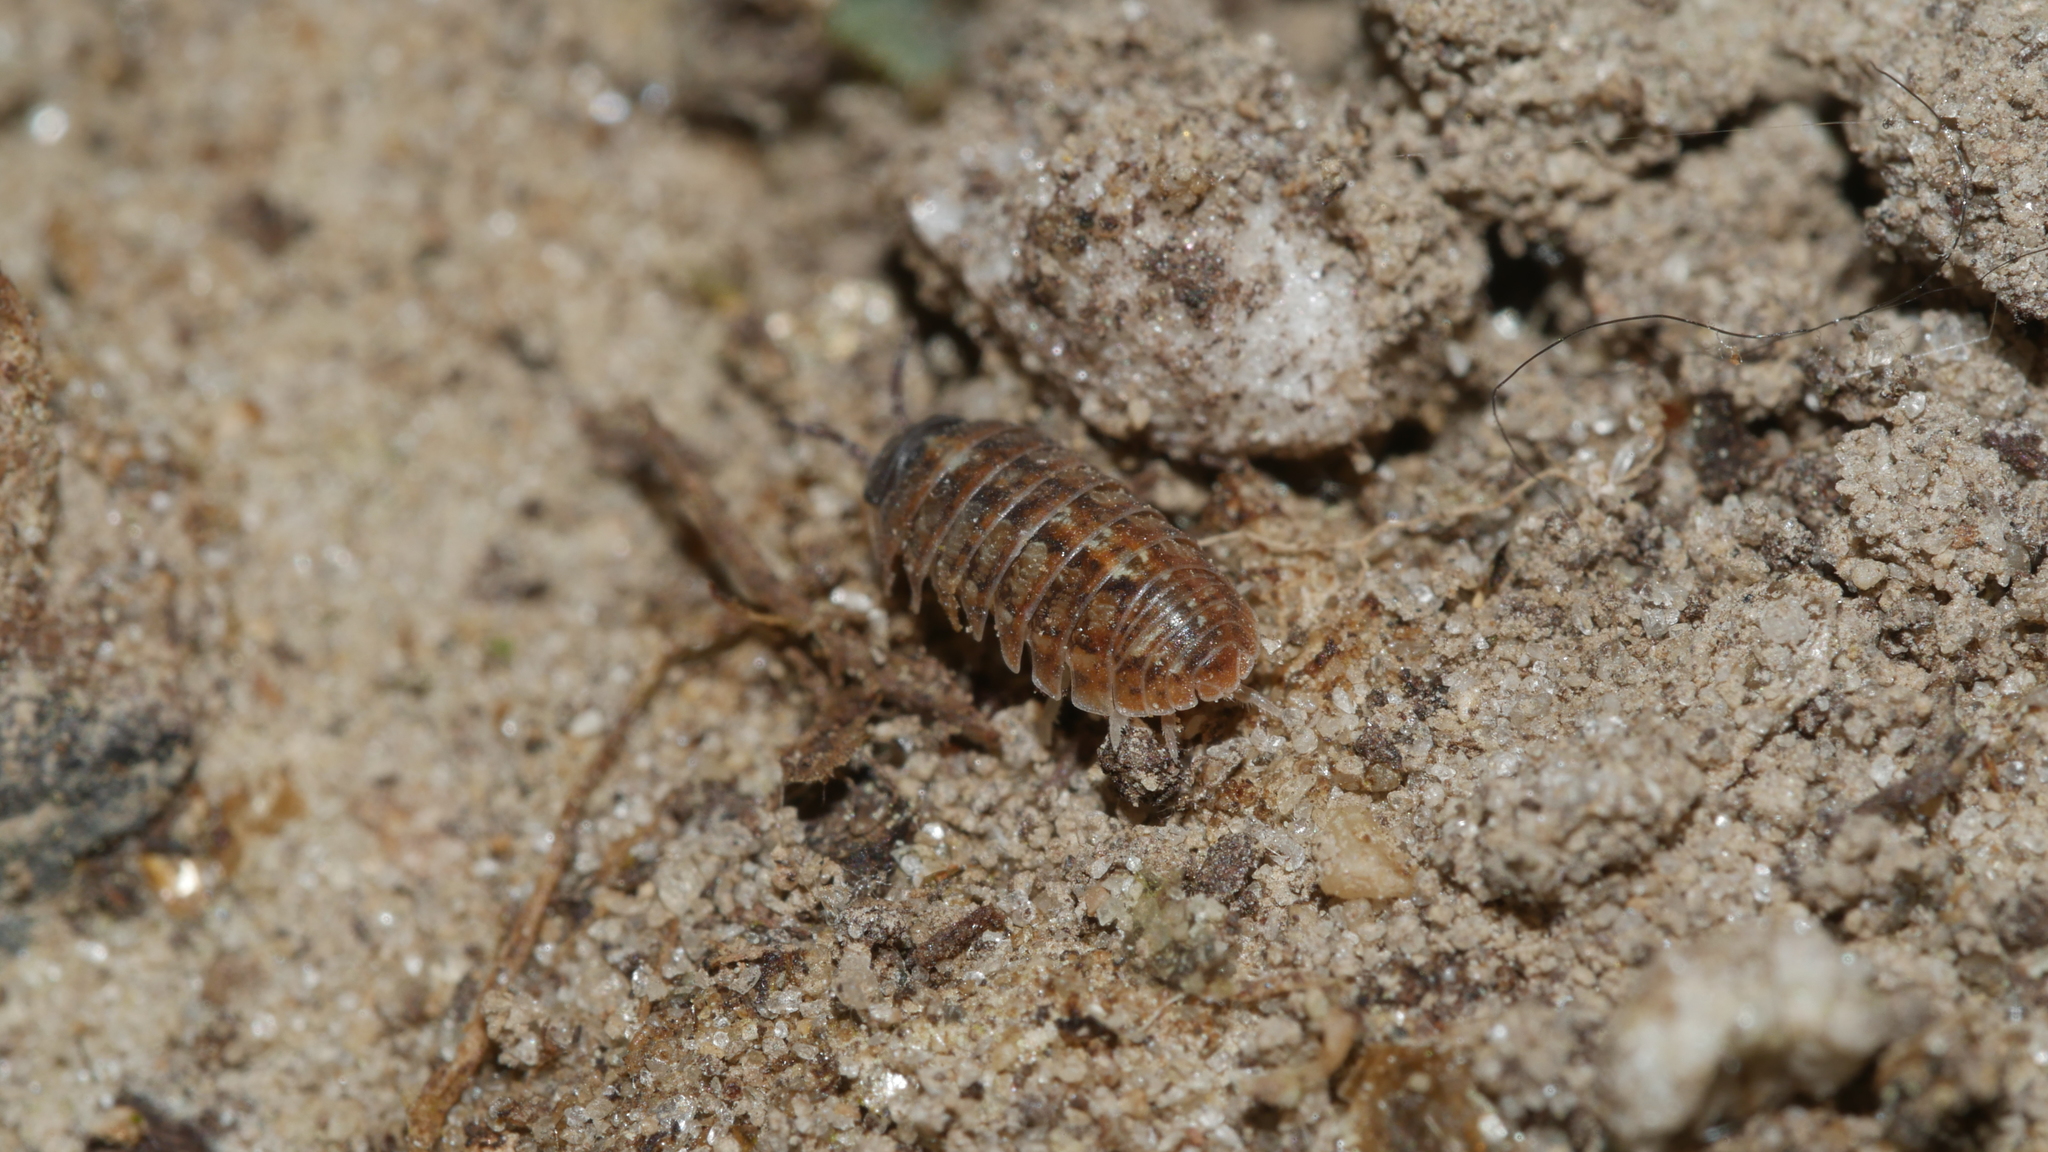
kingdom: Animalia
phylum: Arthropoda
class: Malacostraca
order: Isopoda
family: Armadillidiidae
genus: Armadillidium
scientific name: Armadillidium vulgare
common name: Common pill woodlouse
